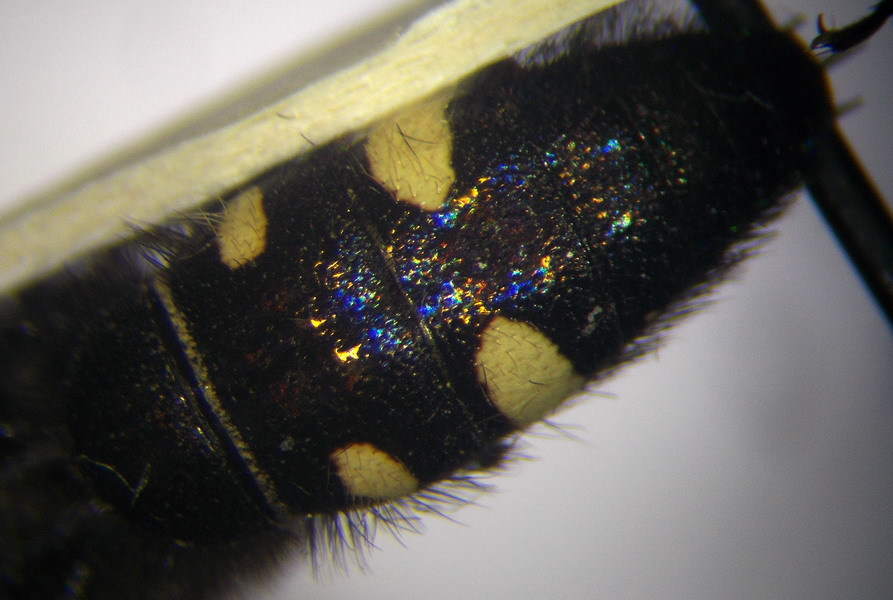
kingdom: Animalia
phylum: Arthropoda
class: Insecta
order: Hymenoptera
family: Vespidae
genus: Vespa
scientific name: Vespa sexmaculata
